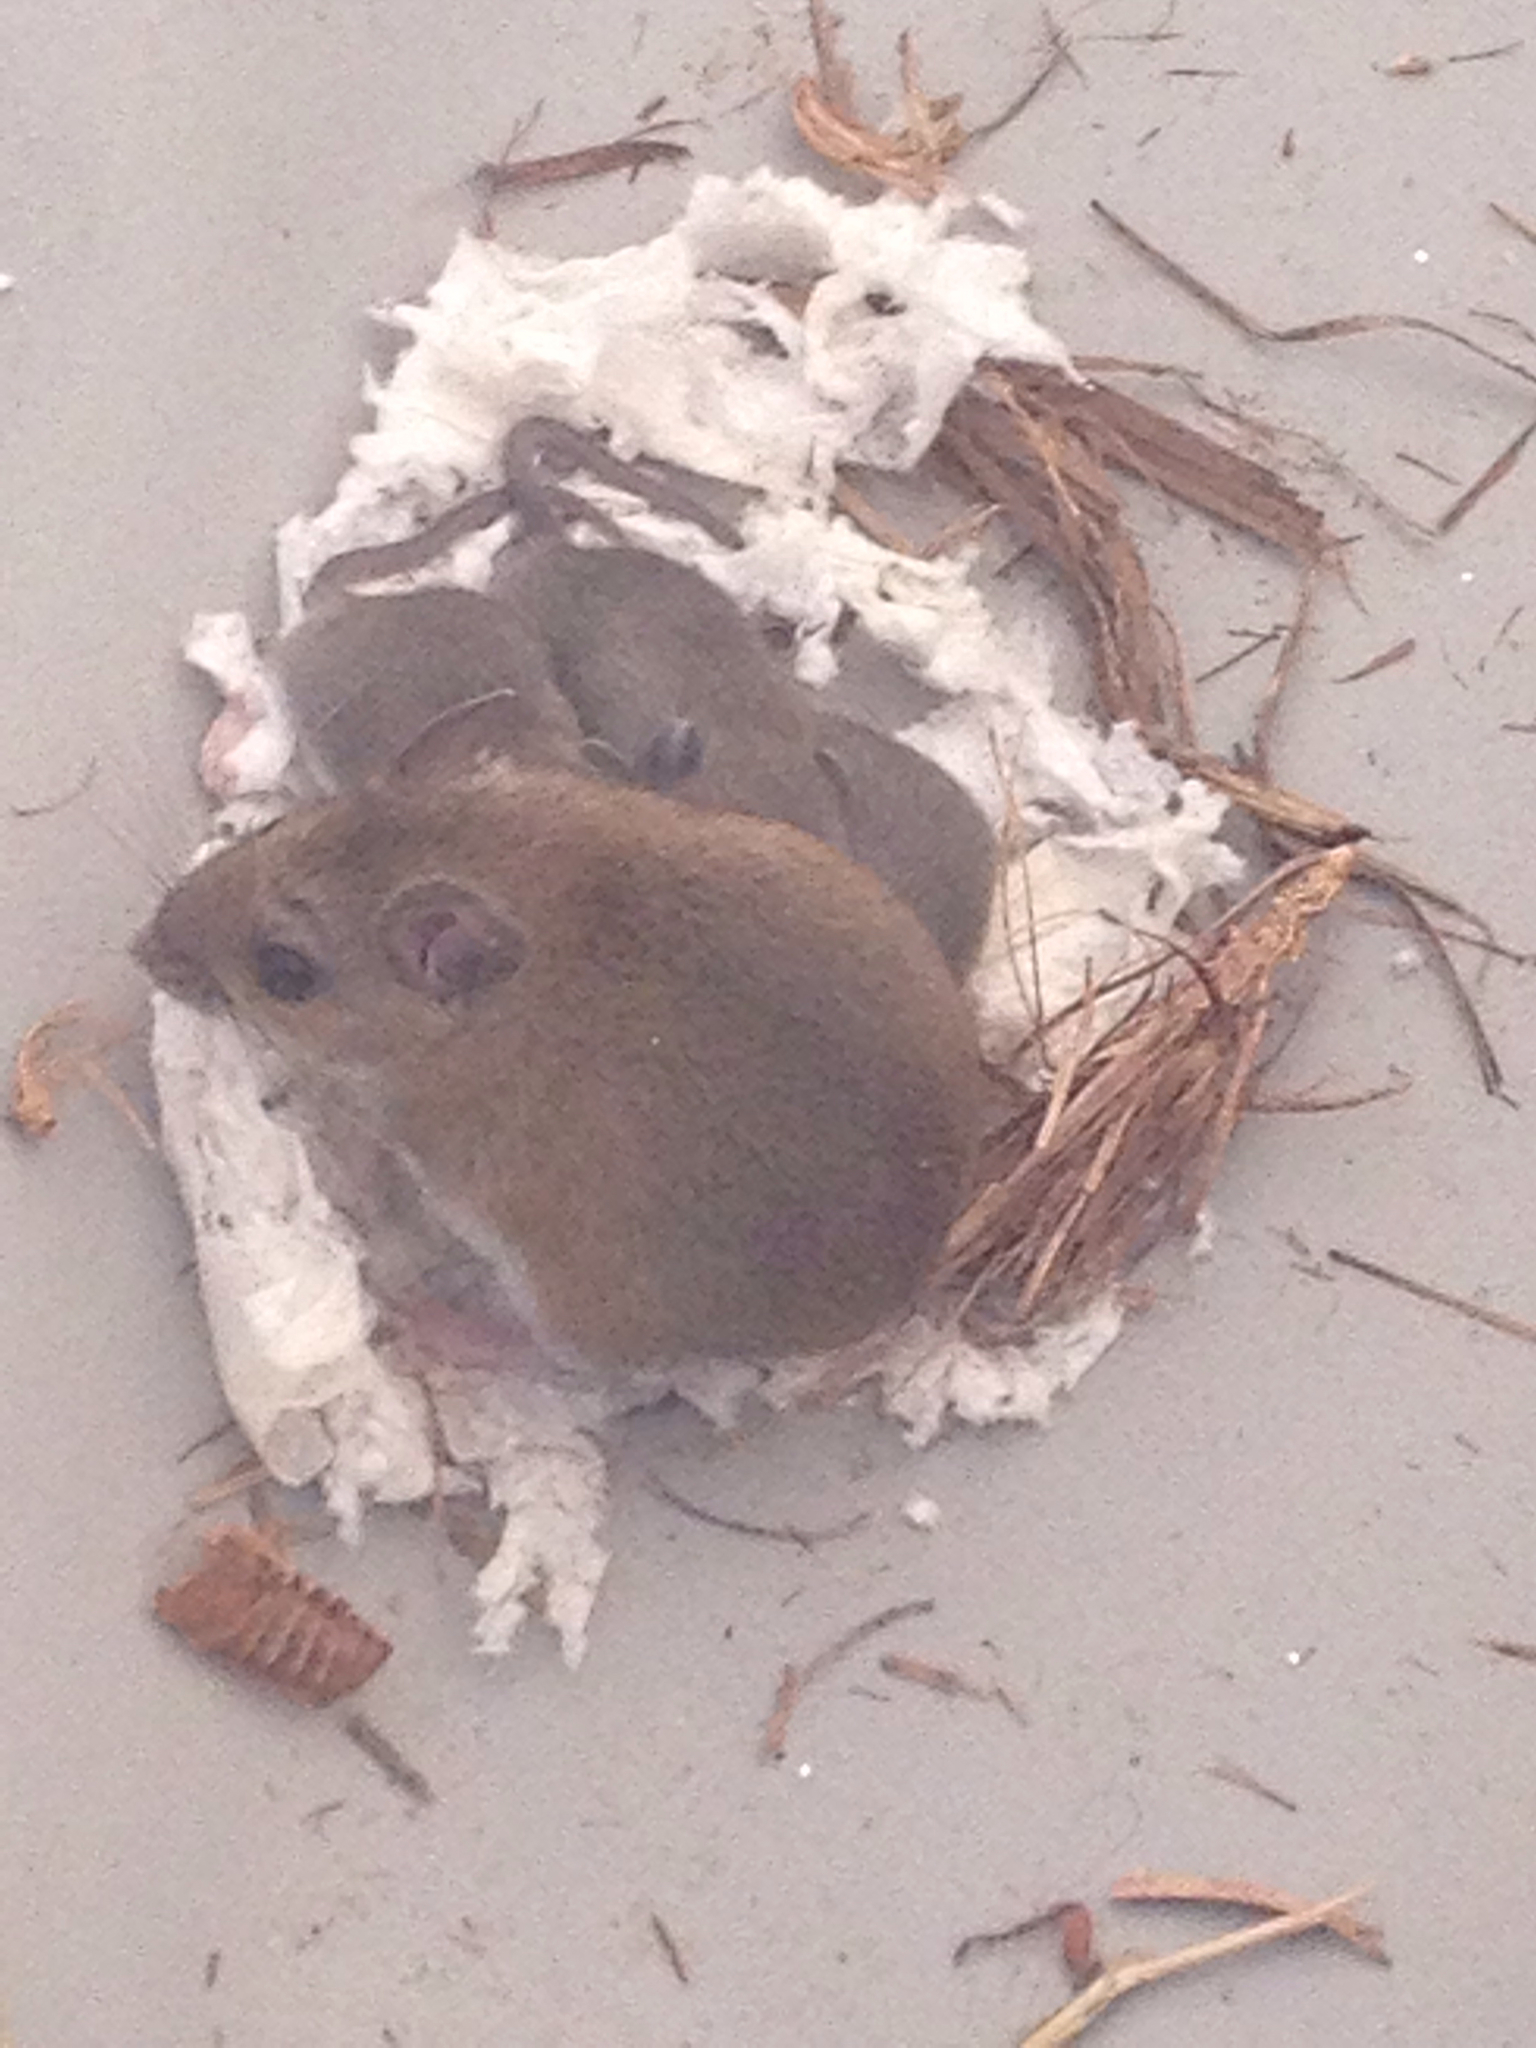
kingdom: Animalia
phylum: Chordata
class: Mammalia
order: Rodentia
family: Cricetidae
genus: Peromyscus
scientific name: Peromyscus leucopus
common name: White-footed deermouse
